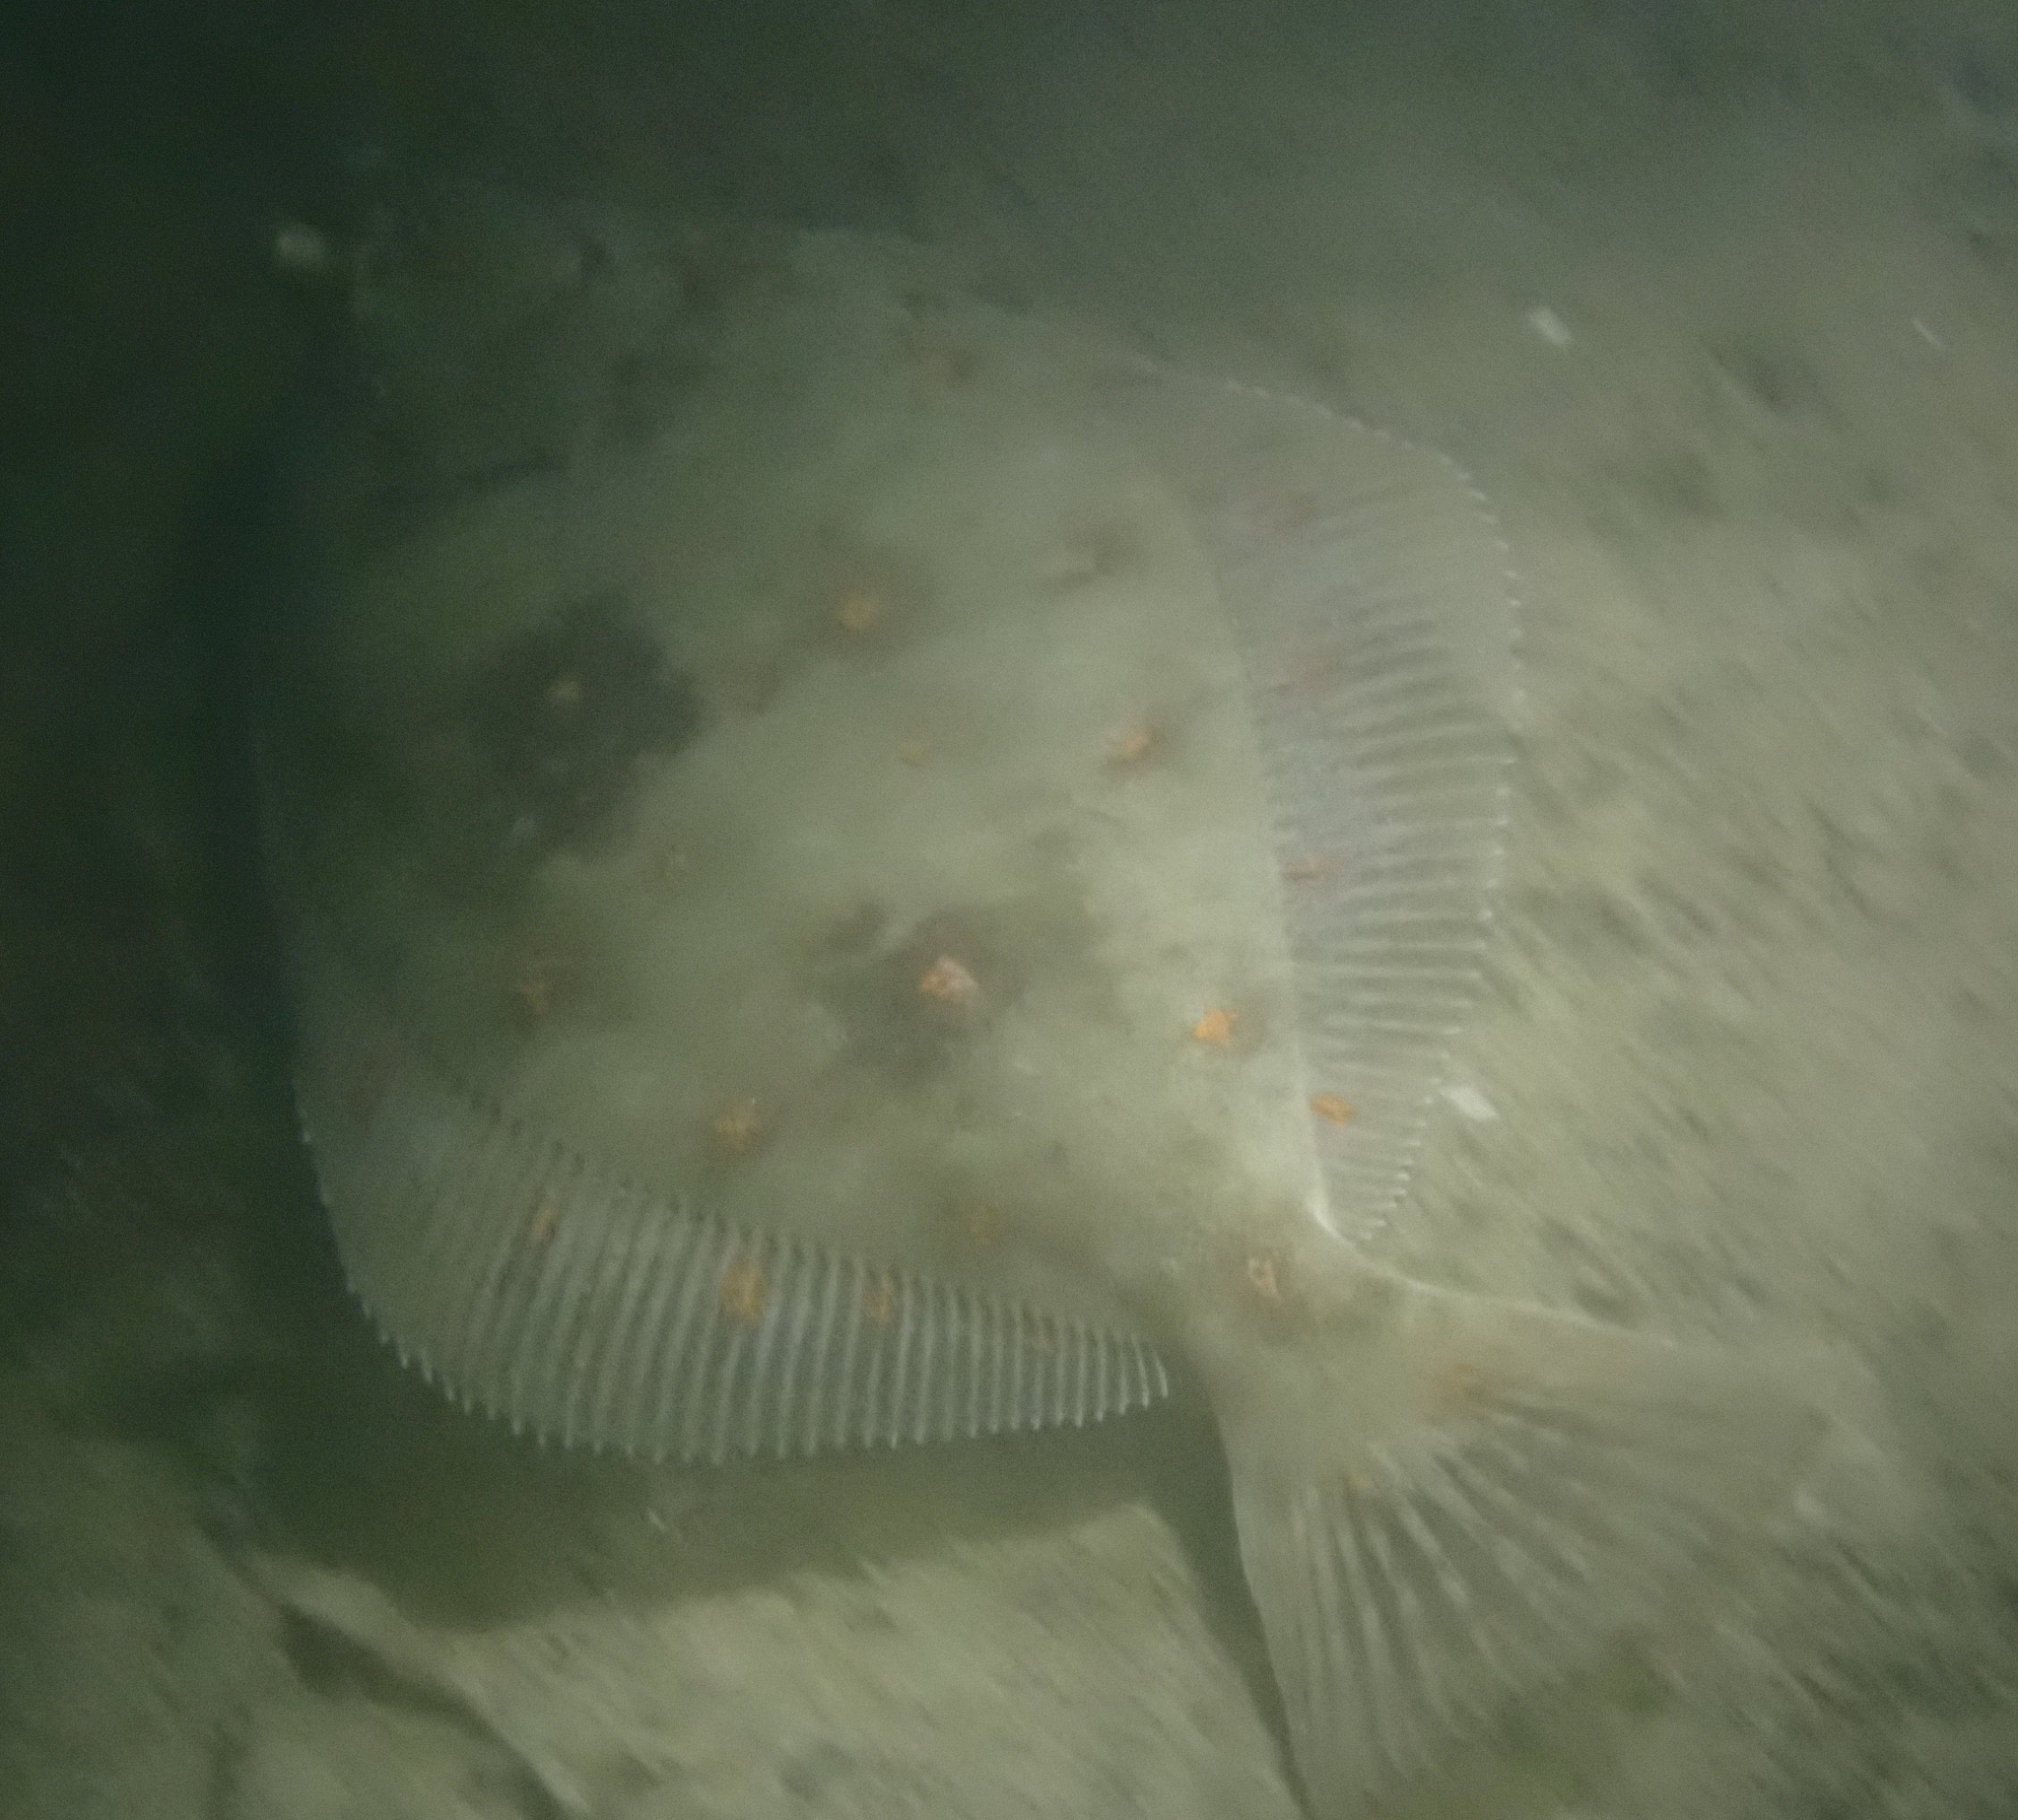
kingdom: Animalia
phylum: Chordata
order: Pleuronectiformes
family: Pleuronectidae
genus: Pleuronectes
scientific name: Pleuronectes platessa
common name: Plaice
